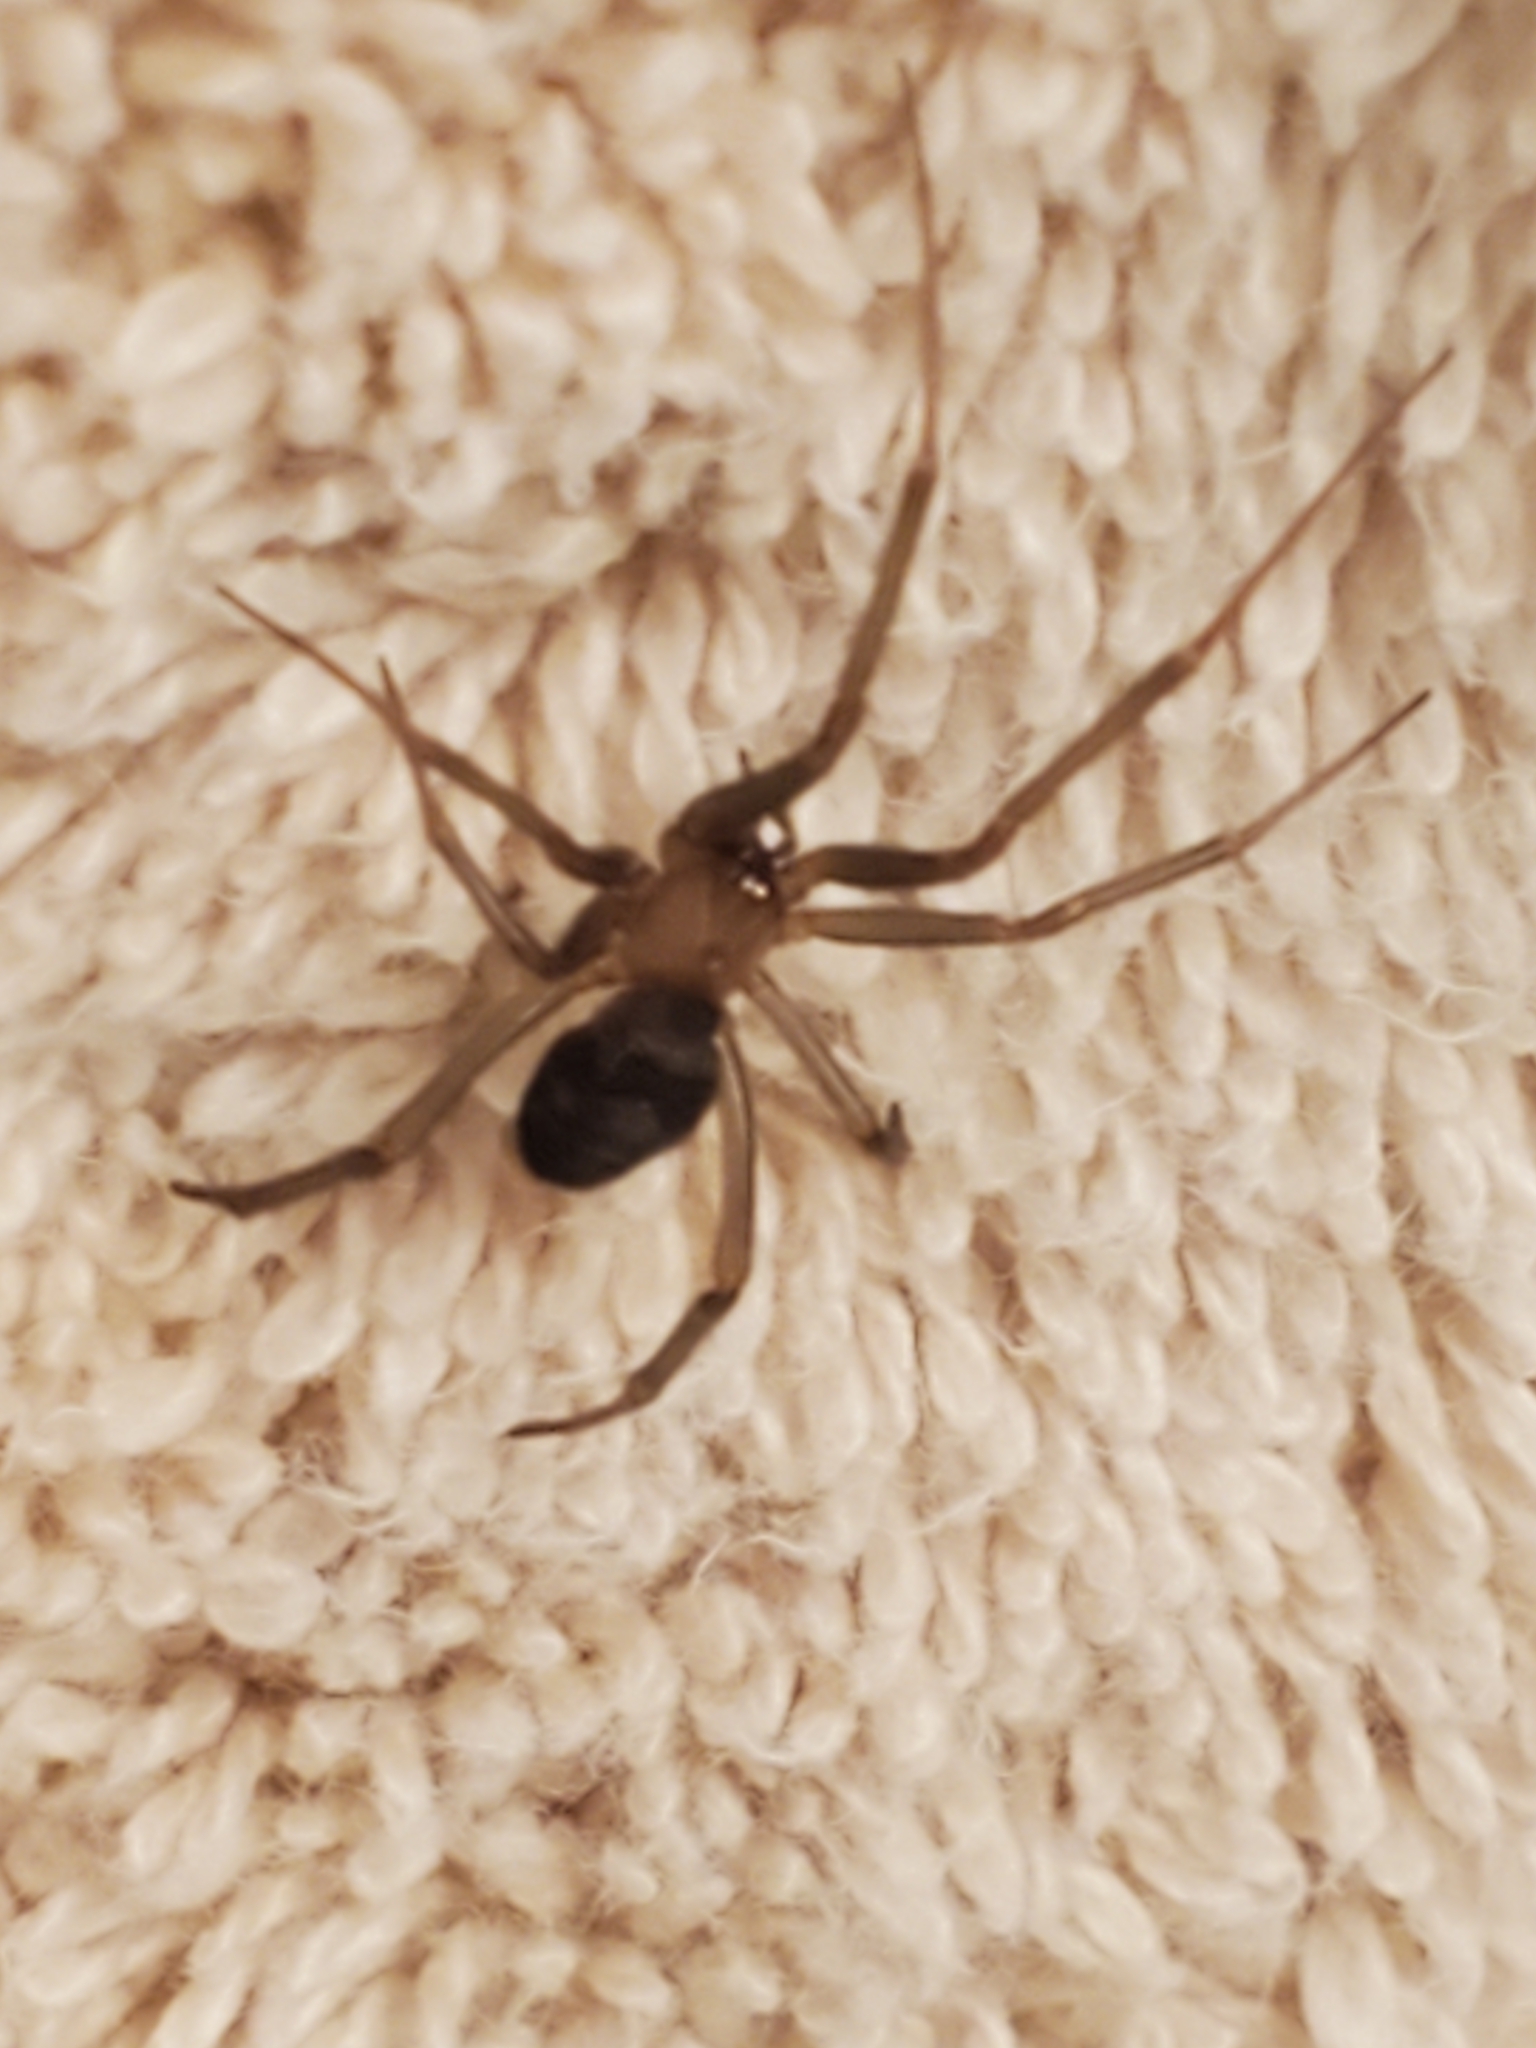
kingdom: Animalia
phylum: Arthropoda
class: Arachnida
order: Araneae
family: Theridiidae
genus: Steatoda
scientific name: Steatoda grossa
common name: False black widow
